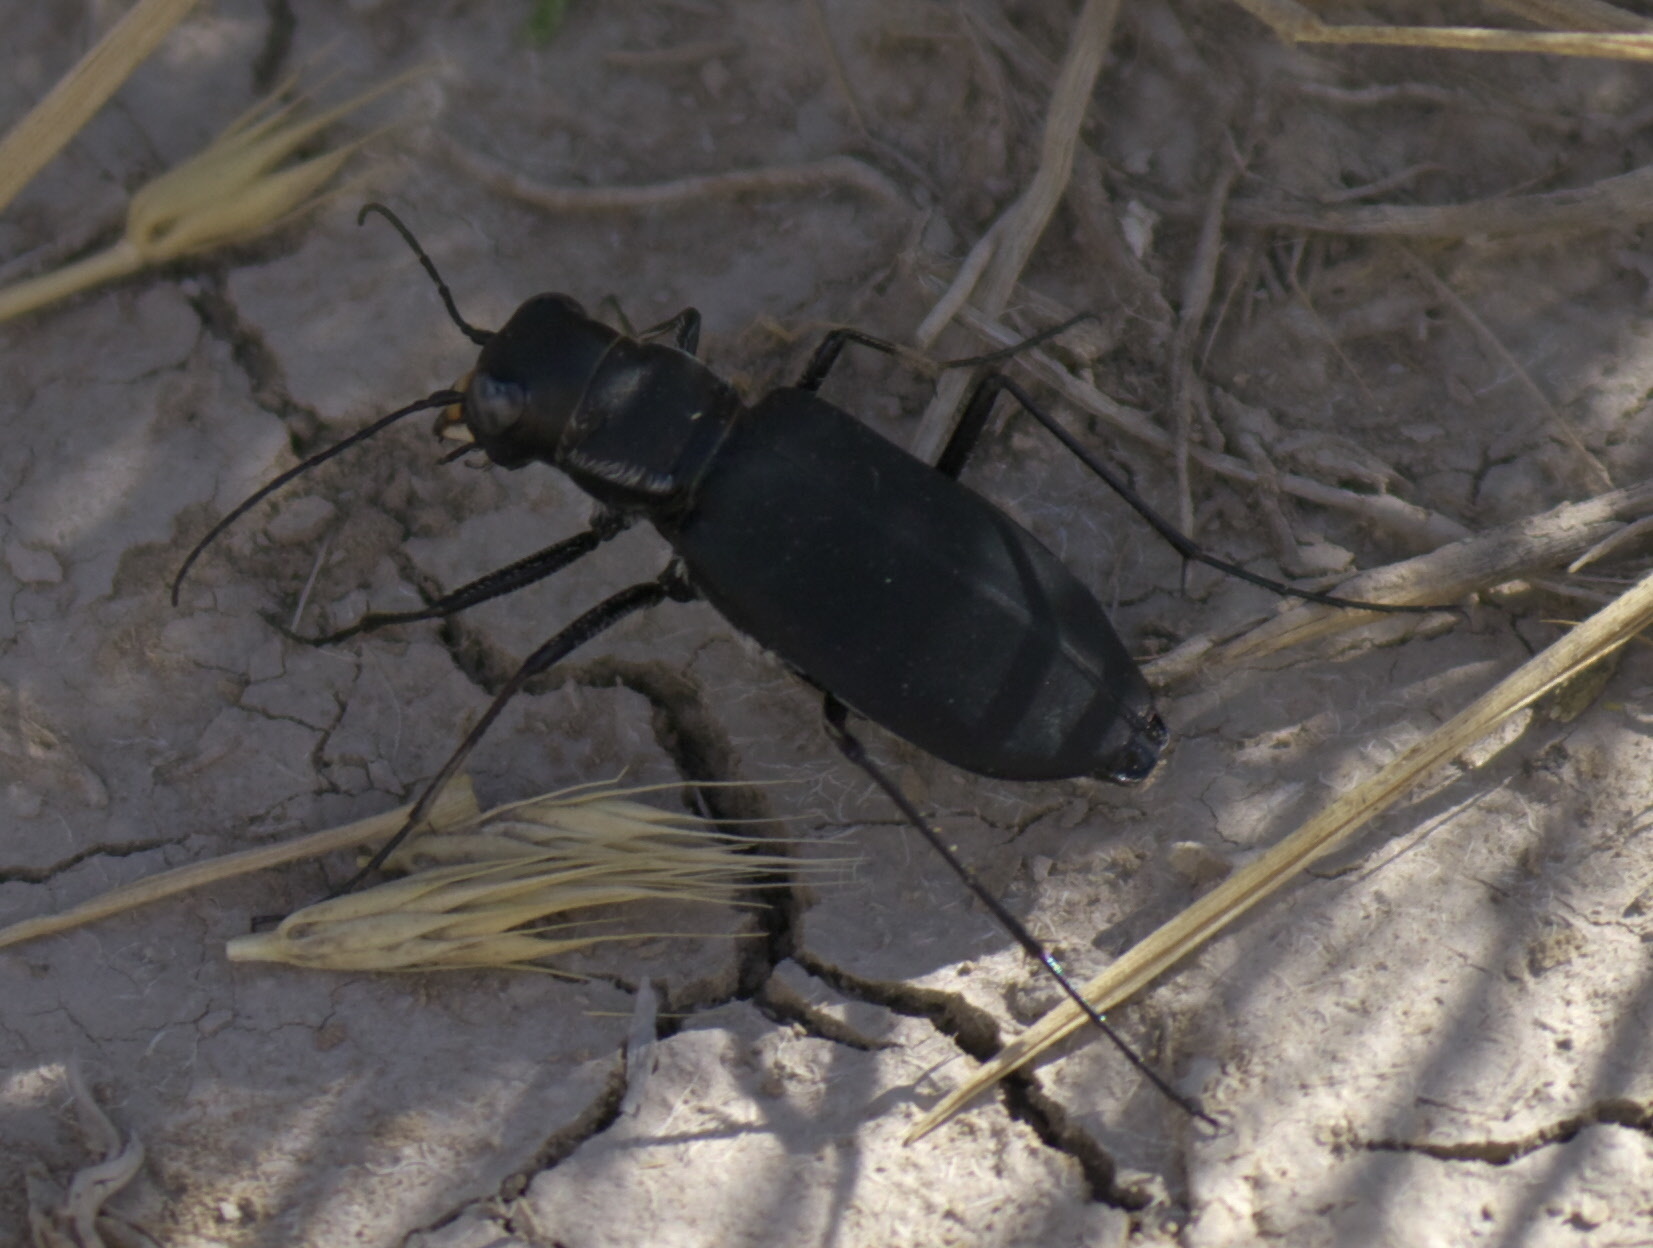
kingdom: Animalia
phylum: Arthropoda
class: Insecta
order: Coleoptera
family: Carabidae
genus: Cicindela
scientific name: Cicindela obsoleta
